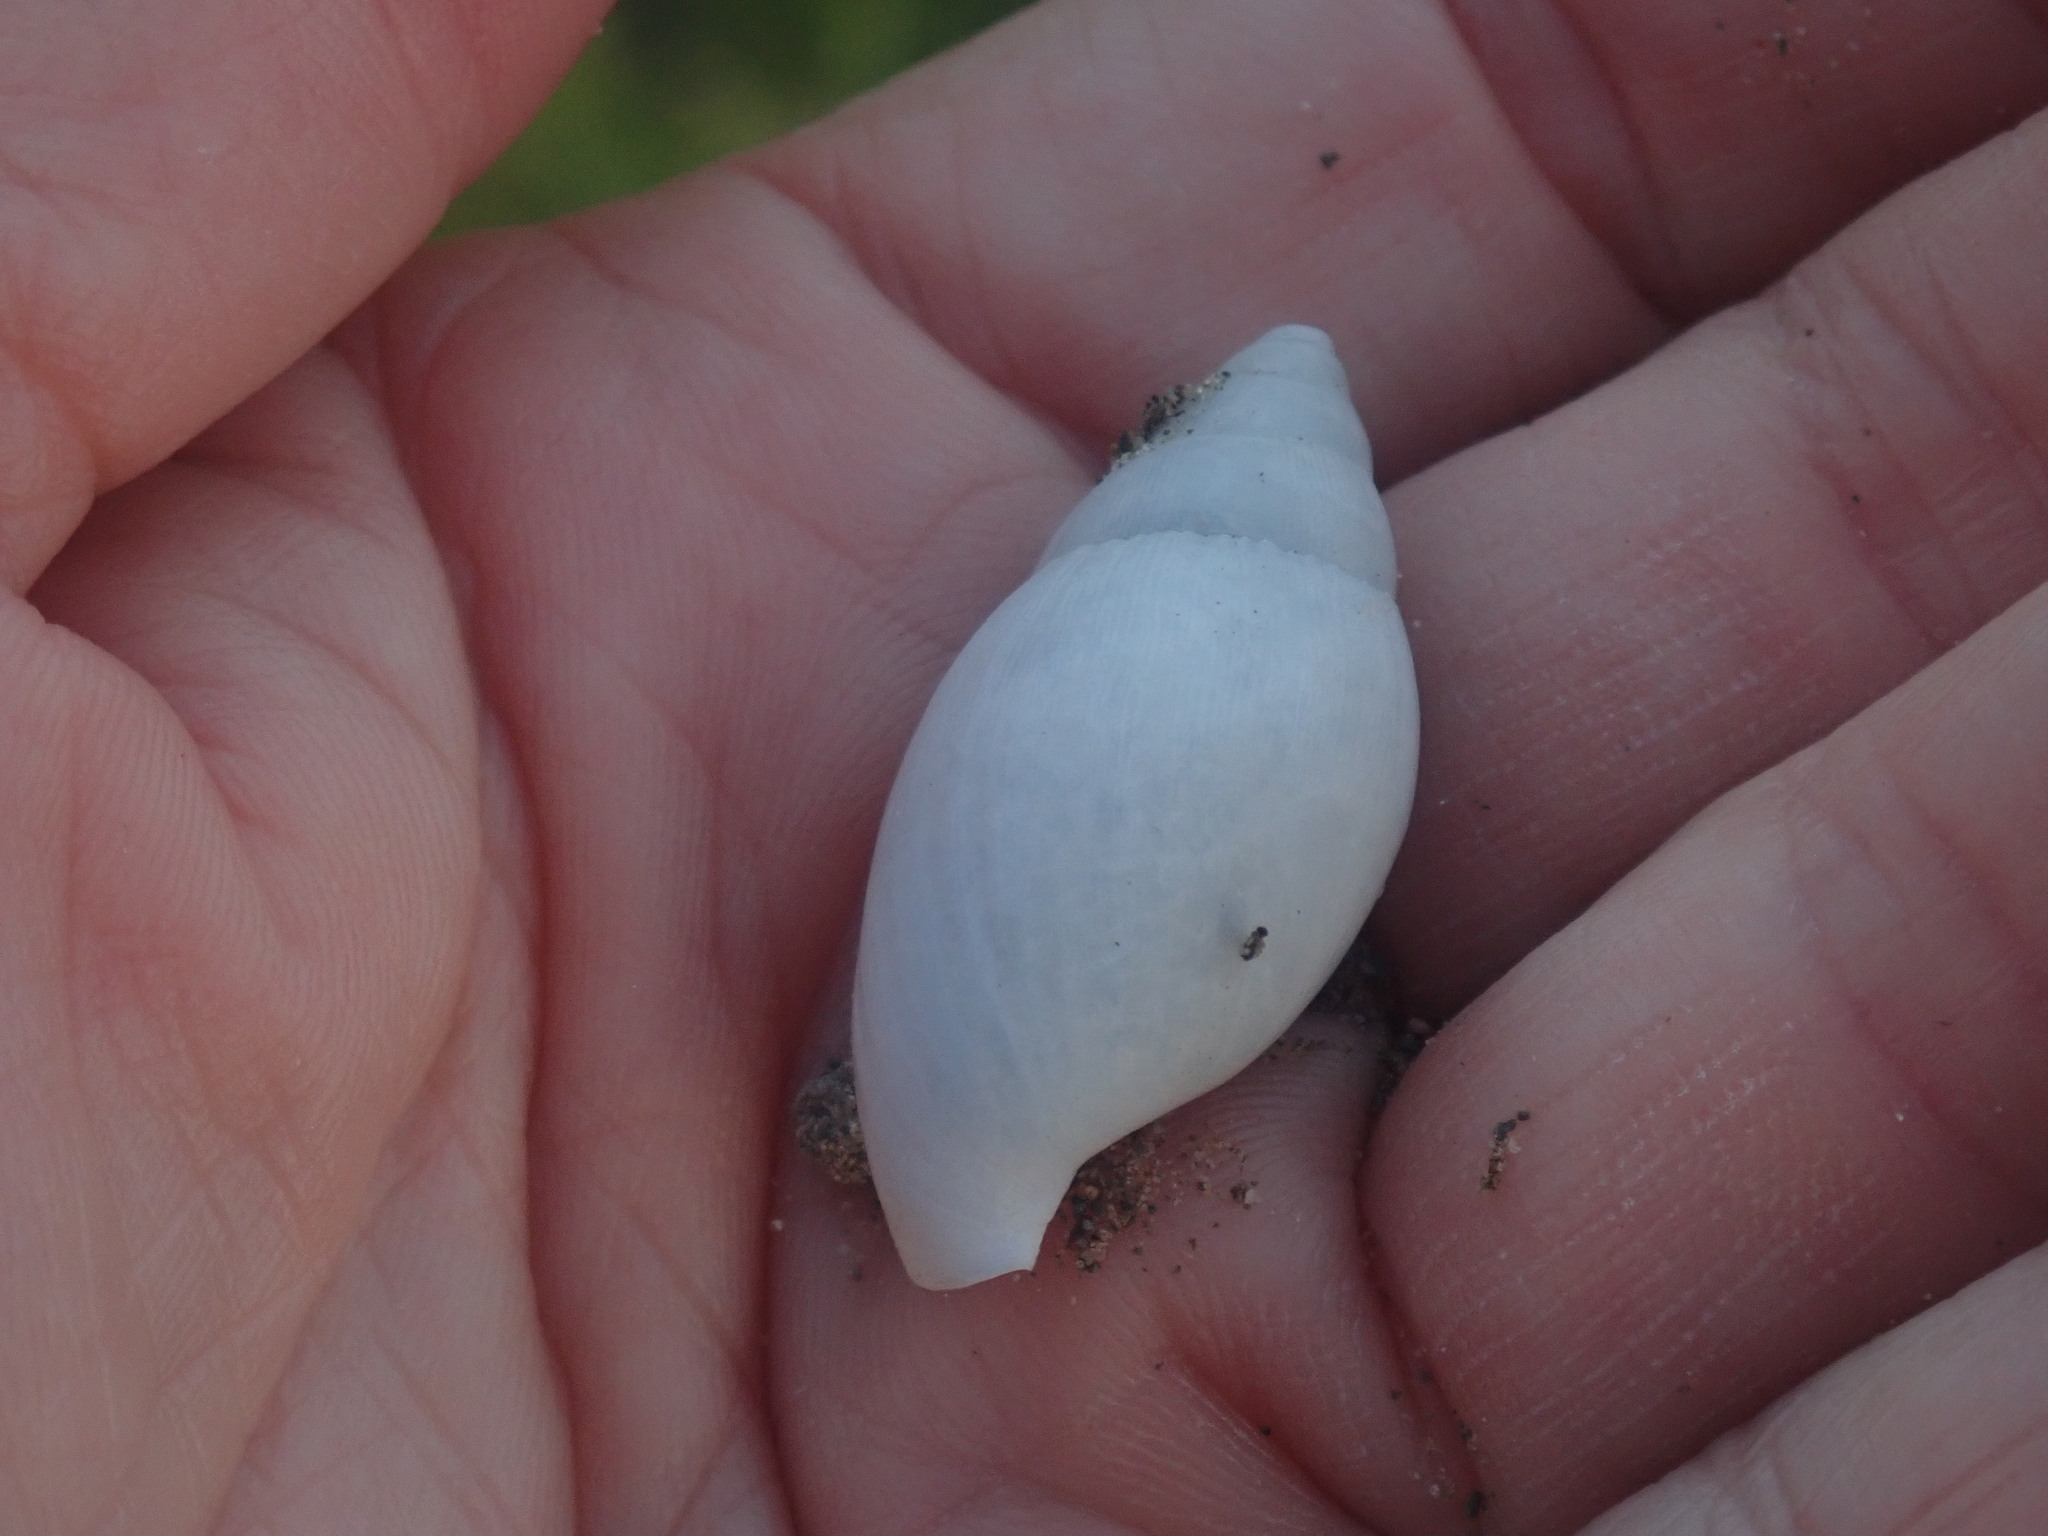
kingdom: Animalia
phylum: Mollusca
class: Gastropoda
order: Stylommatophora
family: Spiraxidae
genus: Euglandina
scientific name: Euglandina rosea
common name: Rosy wolfsnail
